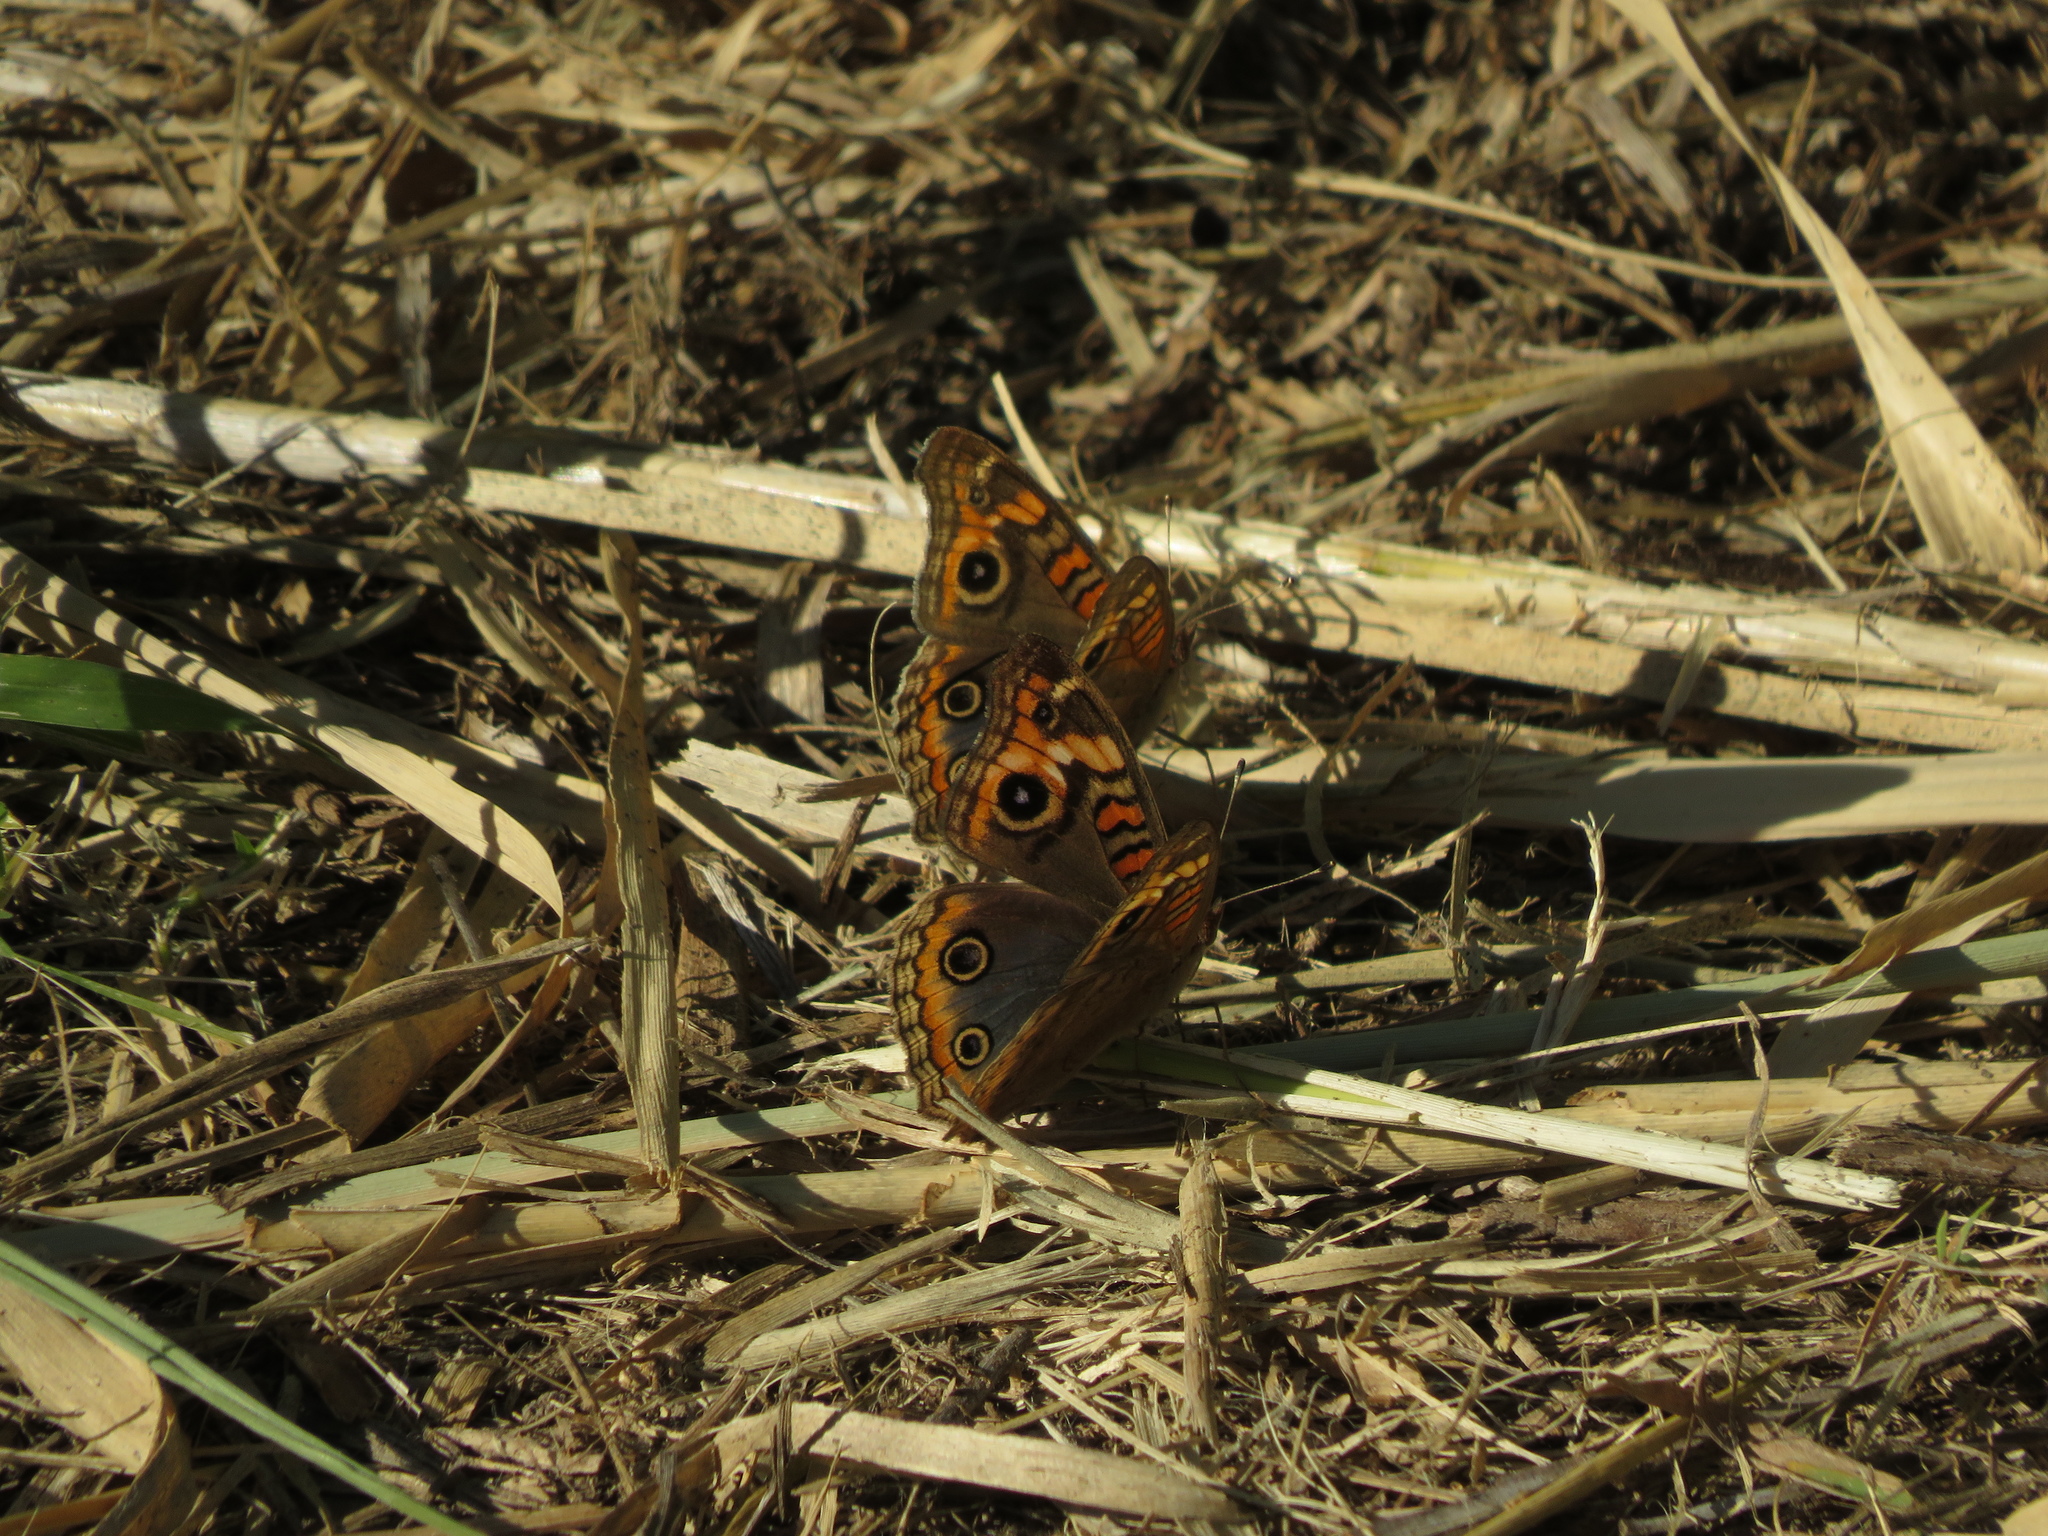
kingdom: Animalia
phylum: Arthropoda
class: Insecta
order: Lepidoptera
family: Nymphalidae
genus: Junonia
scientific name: Junonia lavinia
